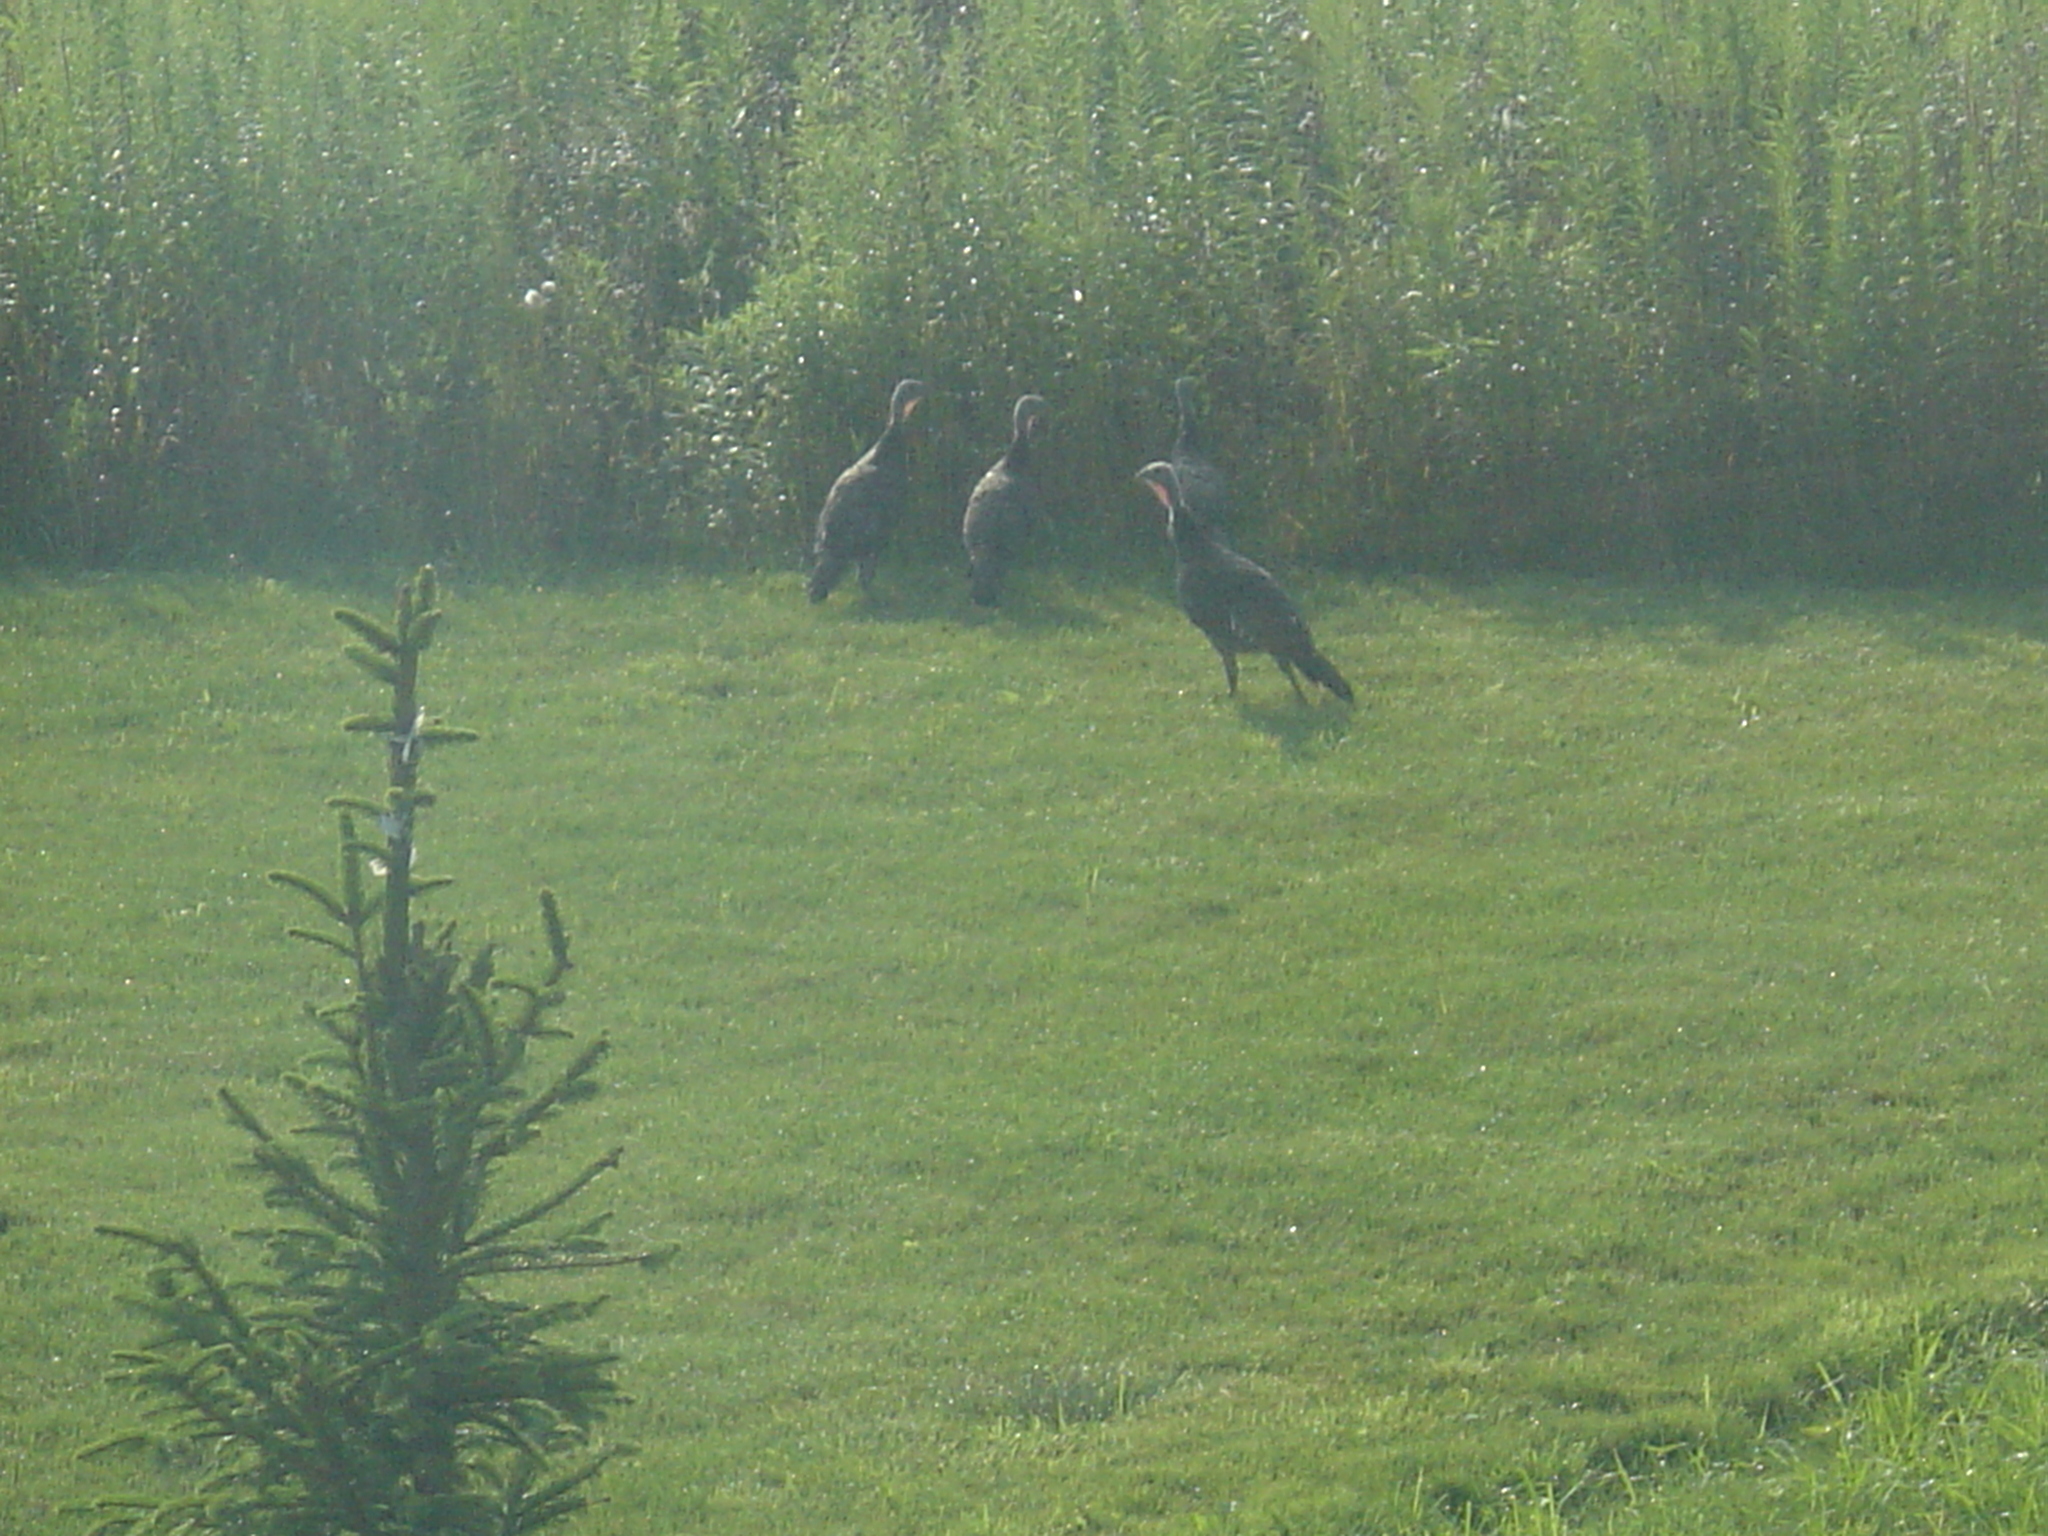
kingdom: Animalia
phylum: Chordata
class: Aves
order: Galliformes
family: Phasianidae
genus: Meleagris
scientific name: Meleagris gallopavo
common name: Wild turkey
